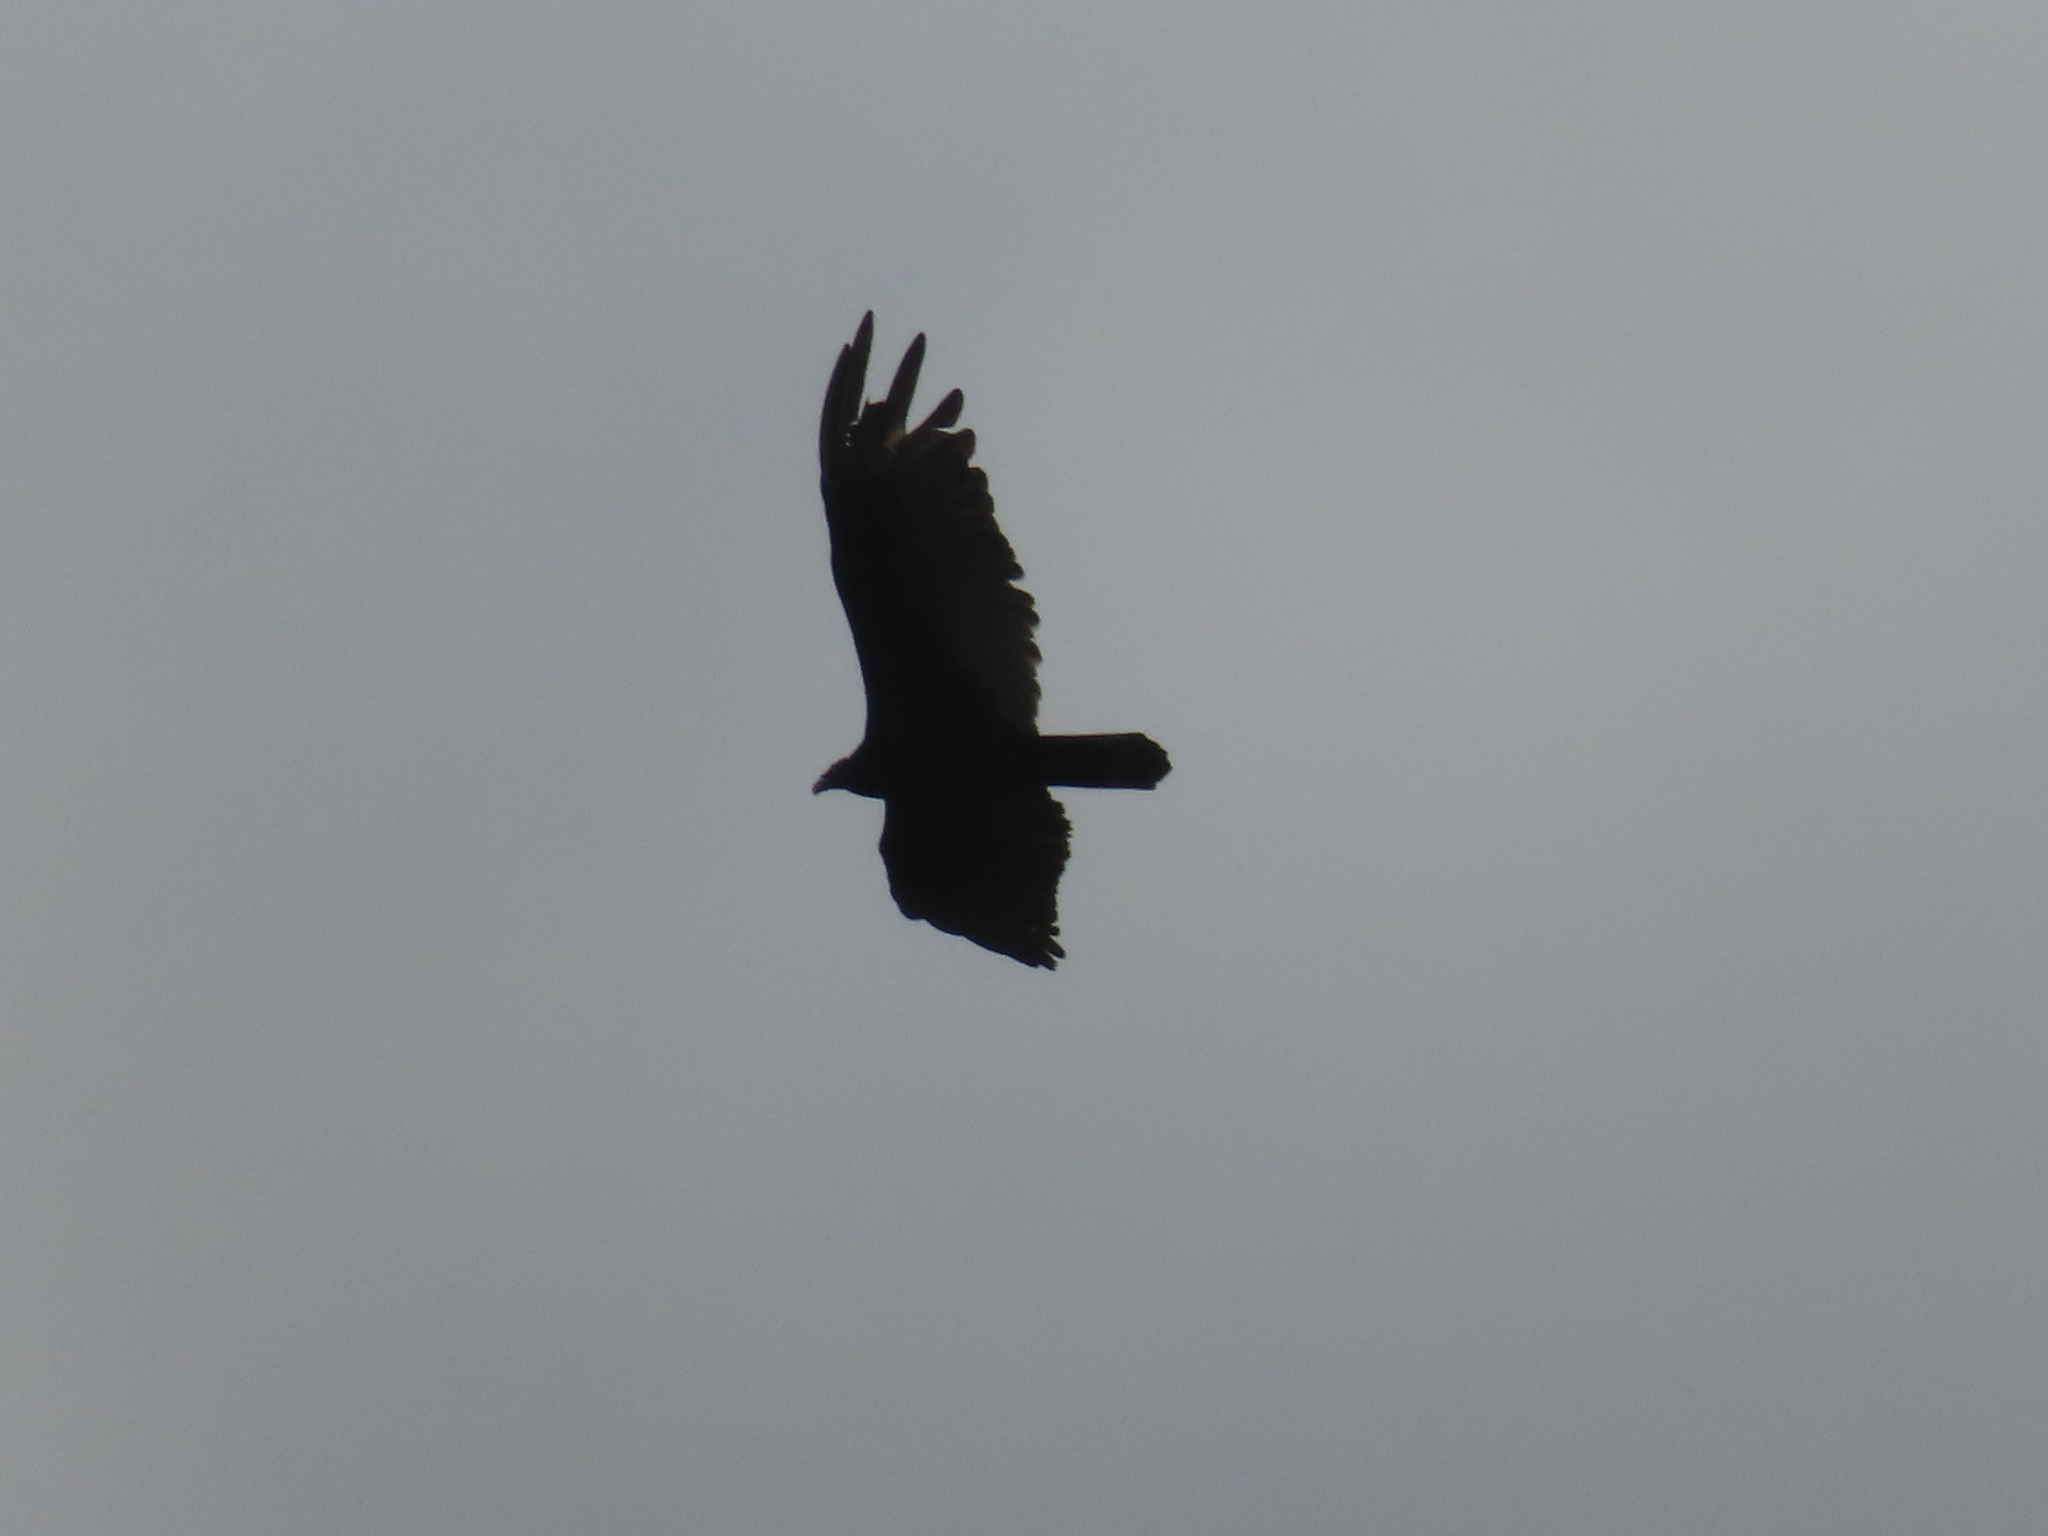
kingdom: Animalia
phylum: Chordata
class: Aves
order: Accipitriformes
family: Cathartidae
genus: Cathartes
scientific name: Cathartes aura
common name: Turkey vulture
